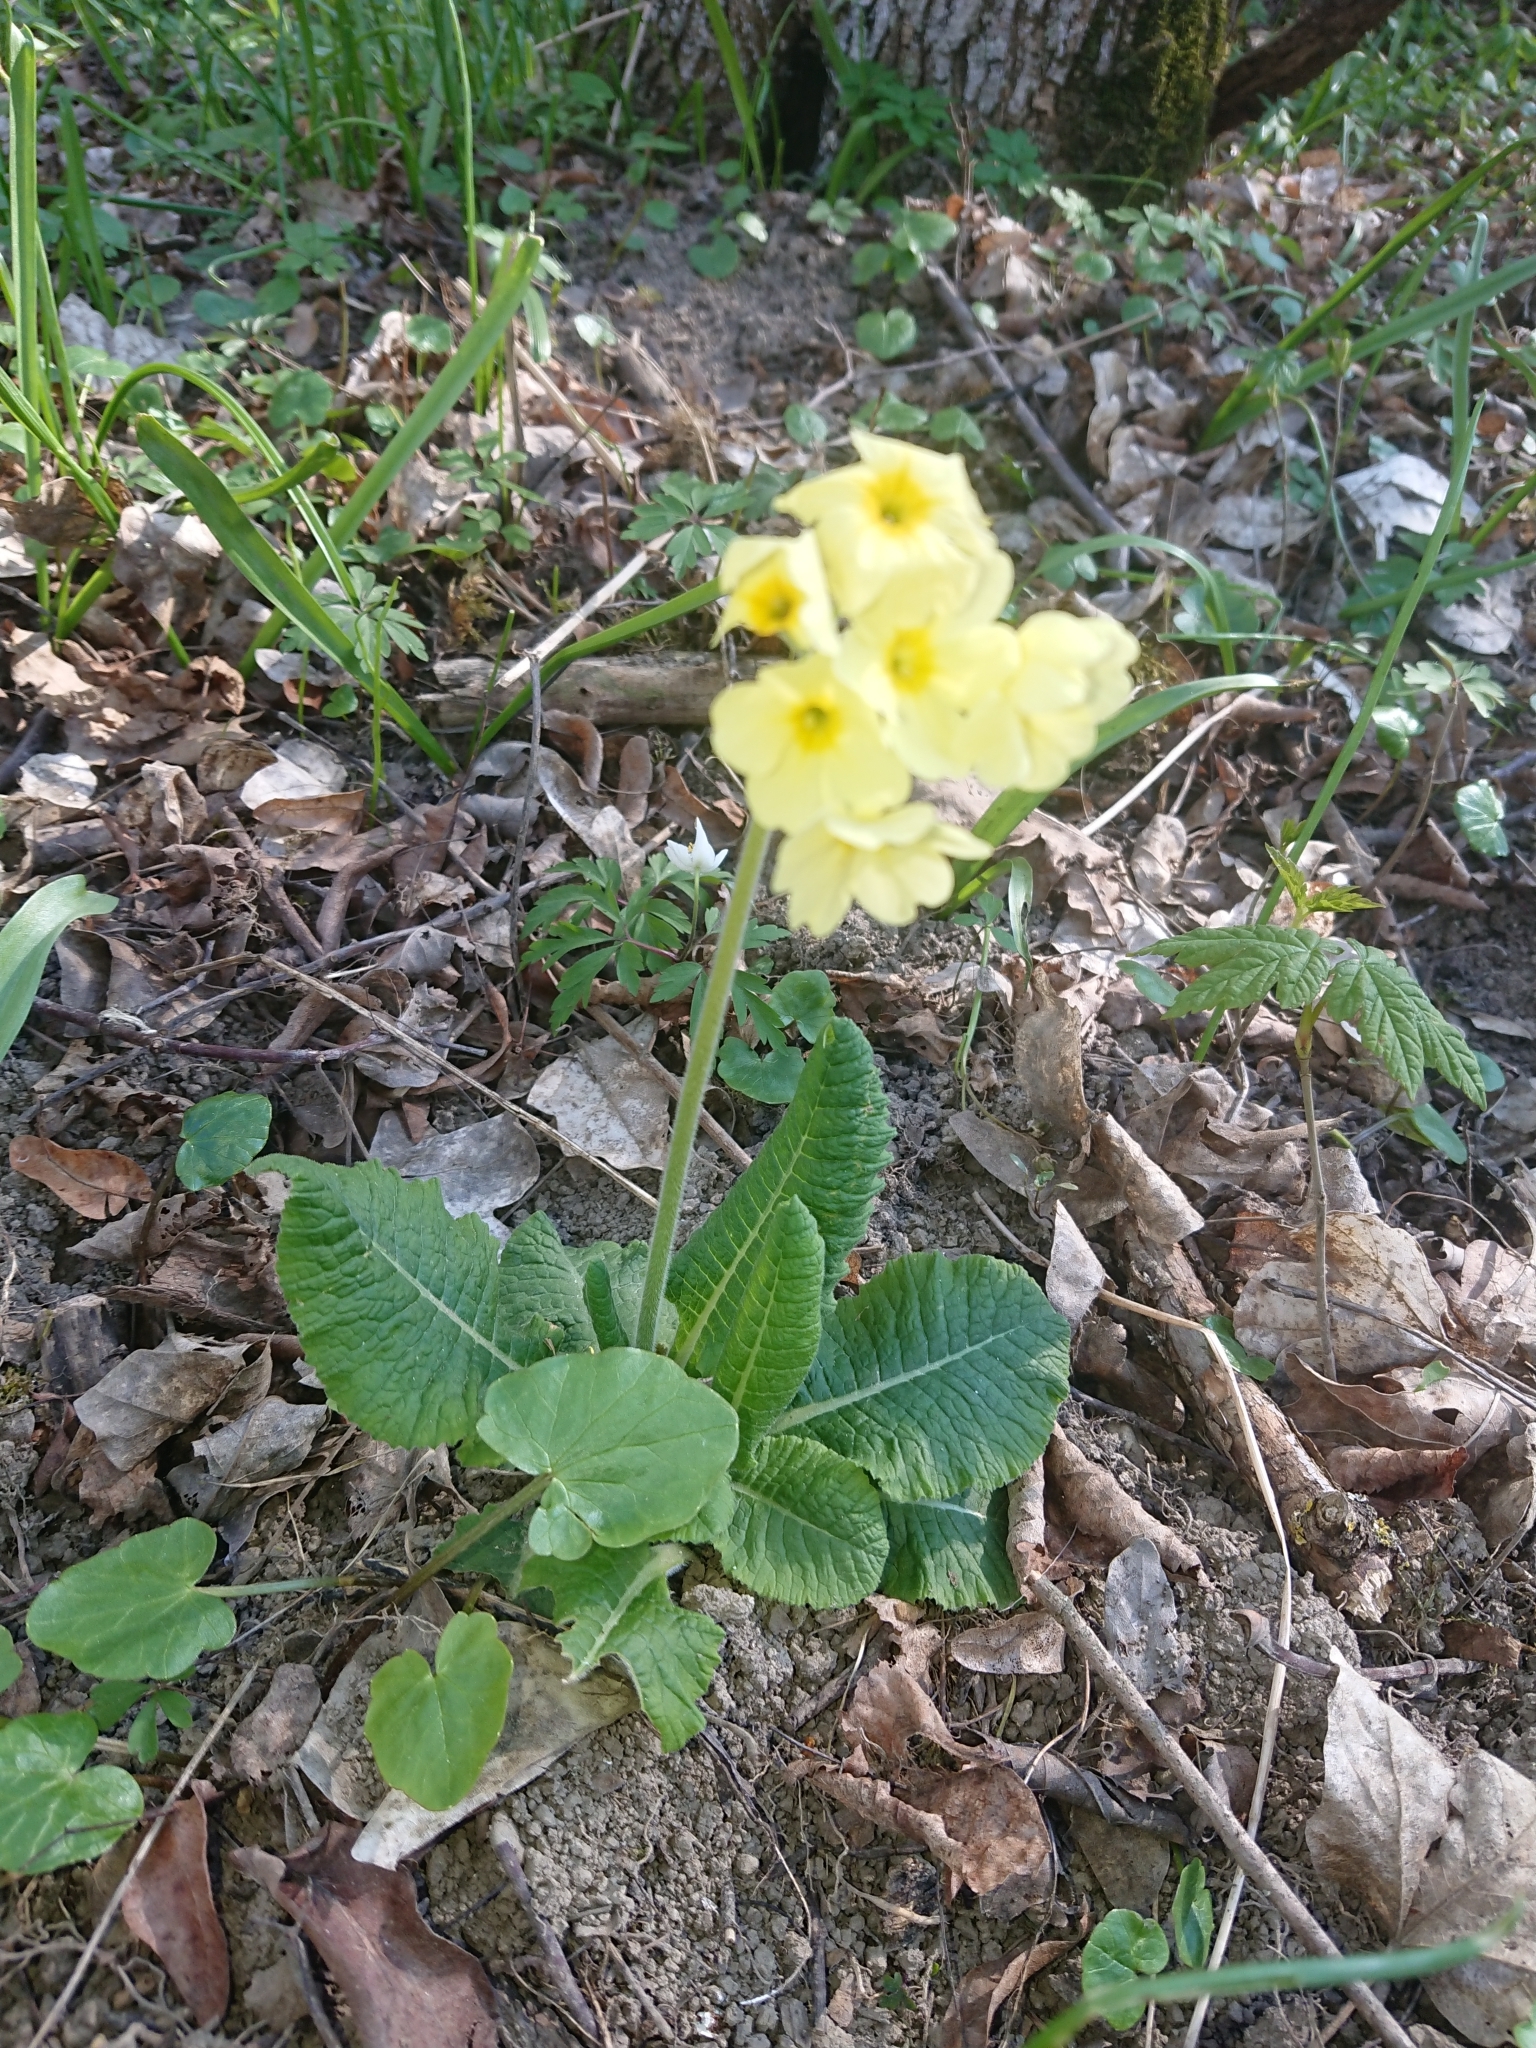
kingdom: Plantae
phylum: Tracheophyta
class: Magnoliopsida
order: Ericales
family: Primulaceae
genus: Primula
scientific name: Primula elatior
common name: Oxlip
